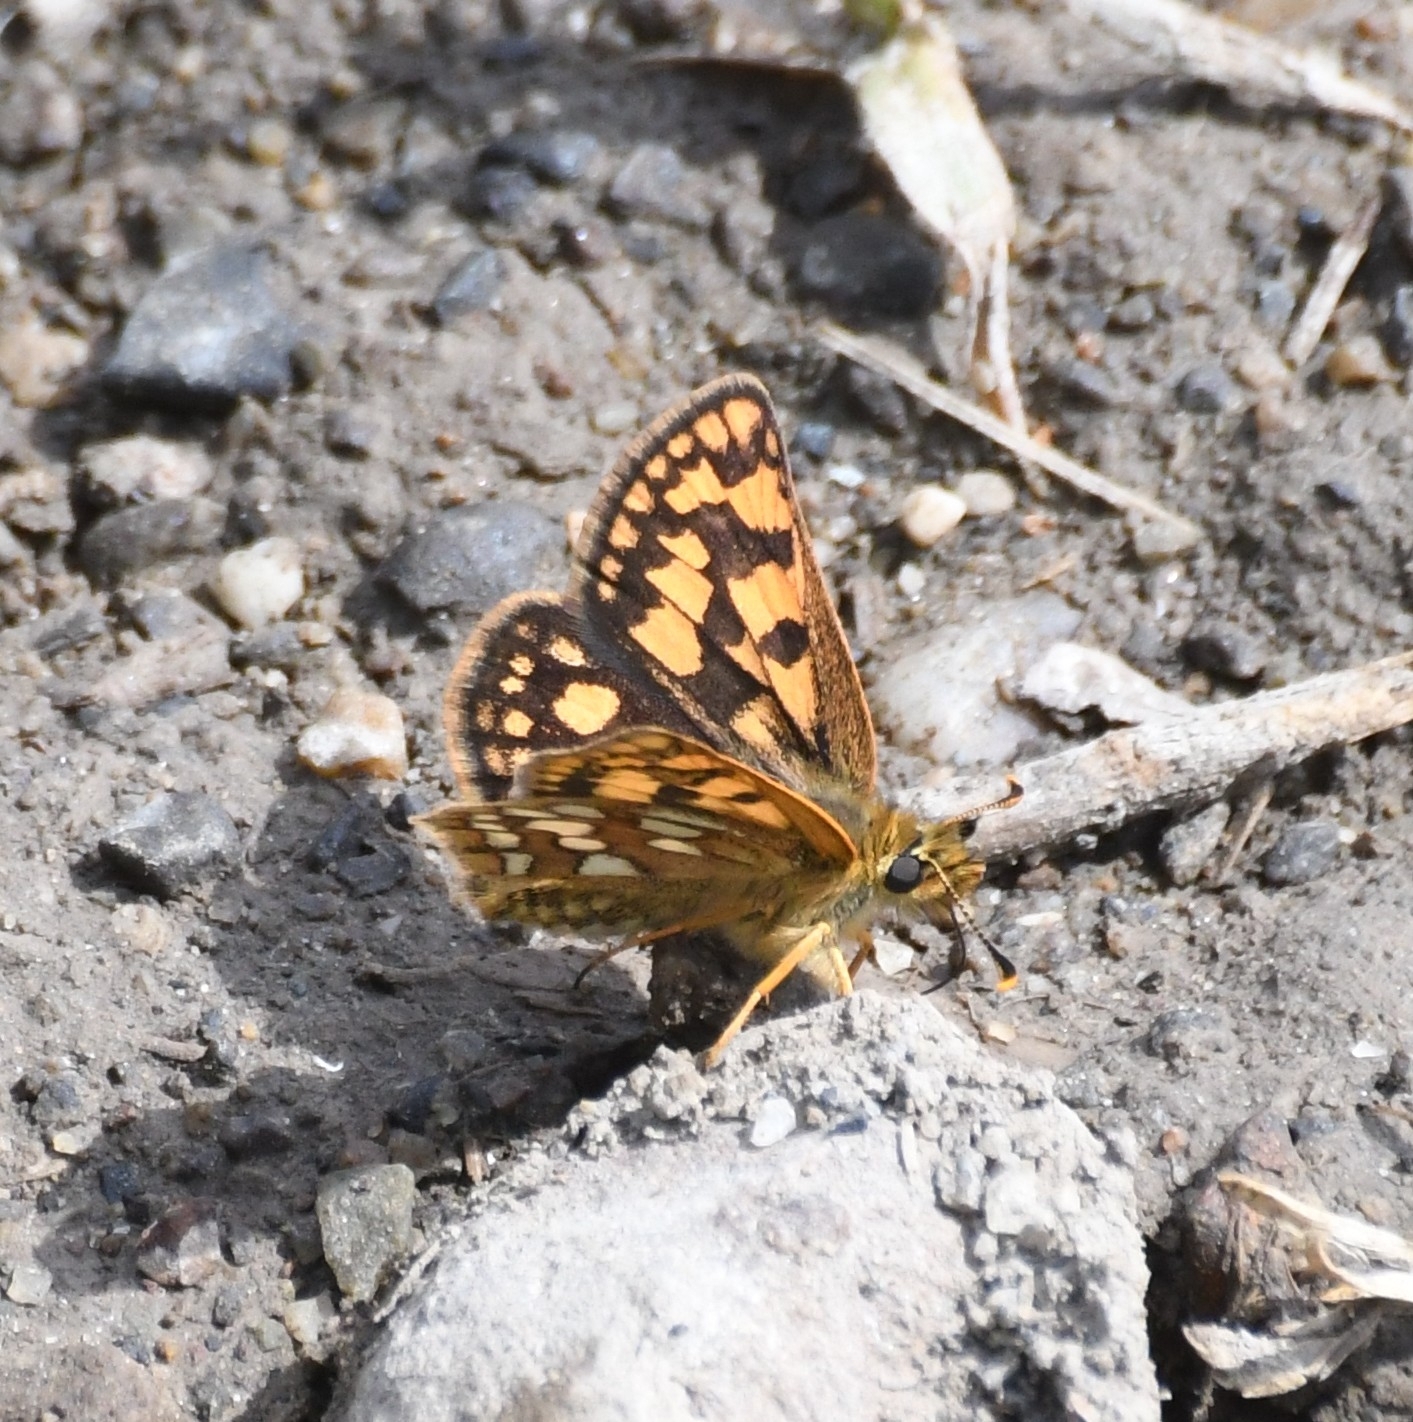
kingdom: Animalia
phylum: Arthropoda
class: Insecta
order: Lepidoptera
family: Hesperiidae
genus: Carterocephalus
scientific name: Carterocephalus skada
